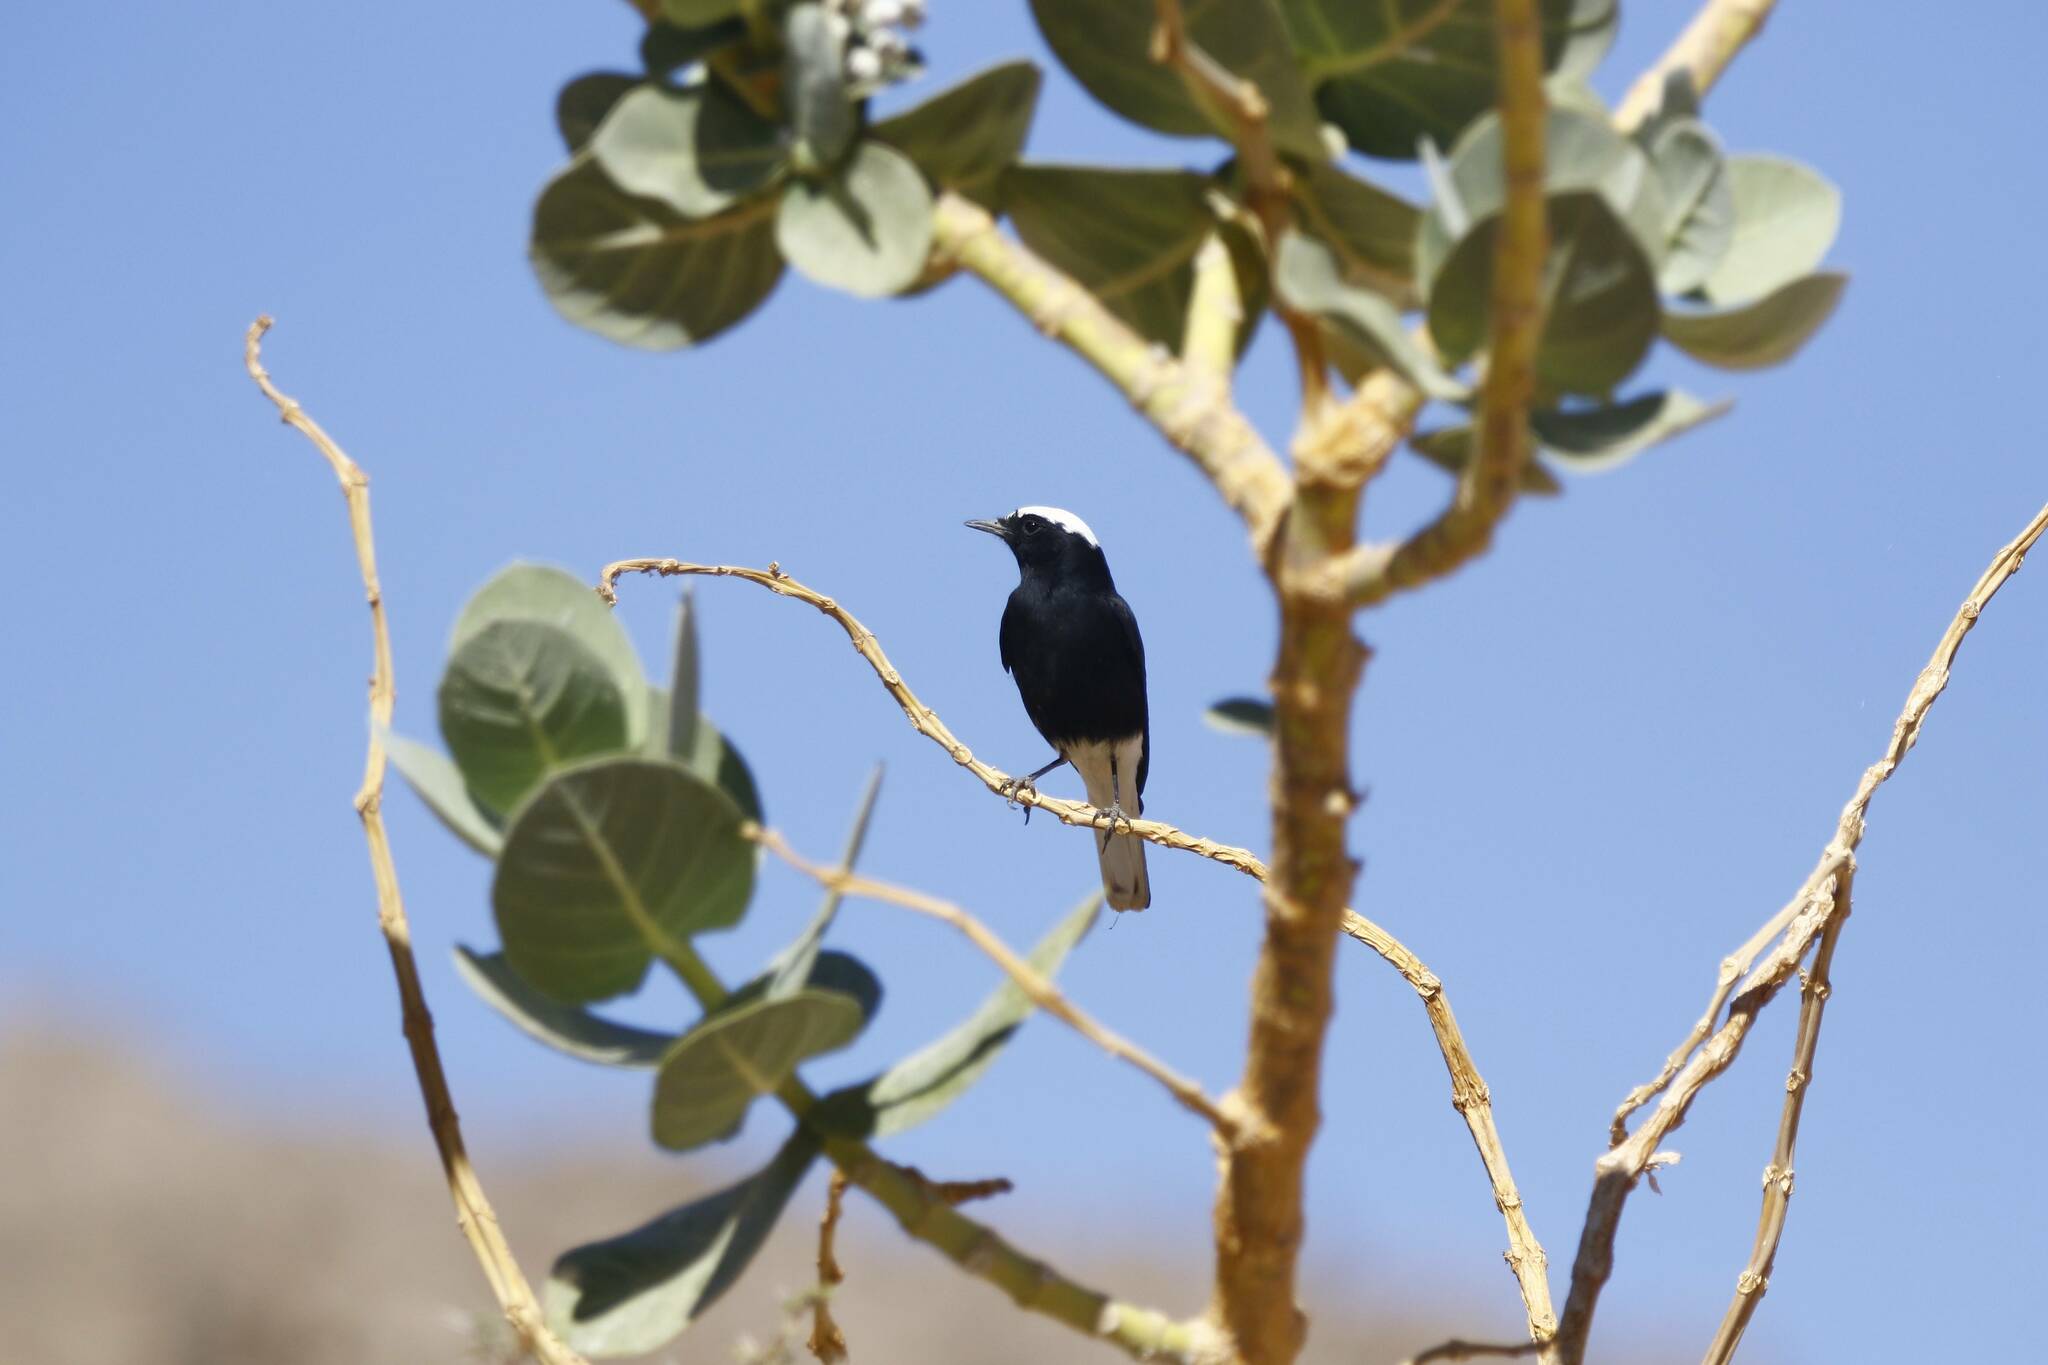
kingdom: Animalia
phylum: Chordata
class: Aves
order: Passeriformes
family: Muscicapidae
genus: Oenanthe
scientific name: Oenanthe leucopyga
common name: White-crowned wheatear
